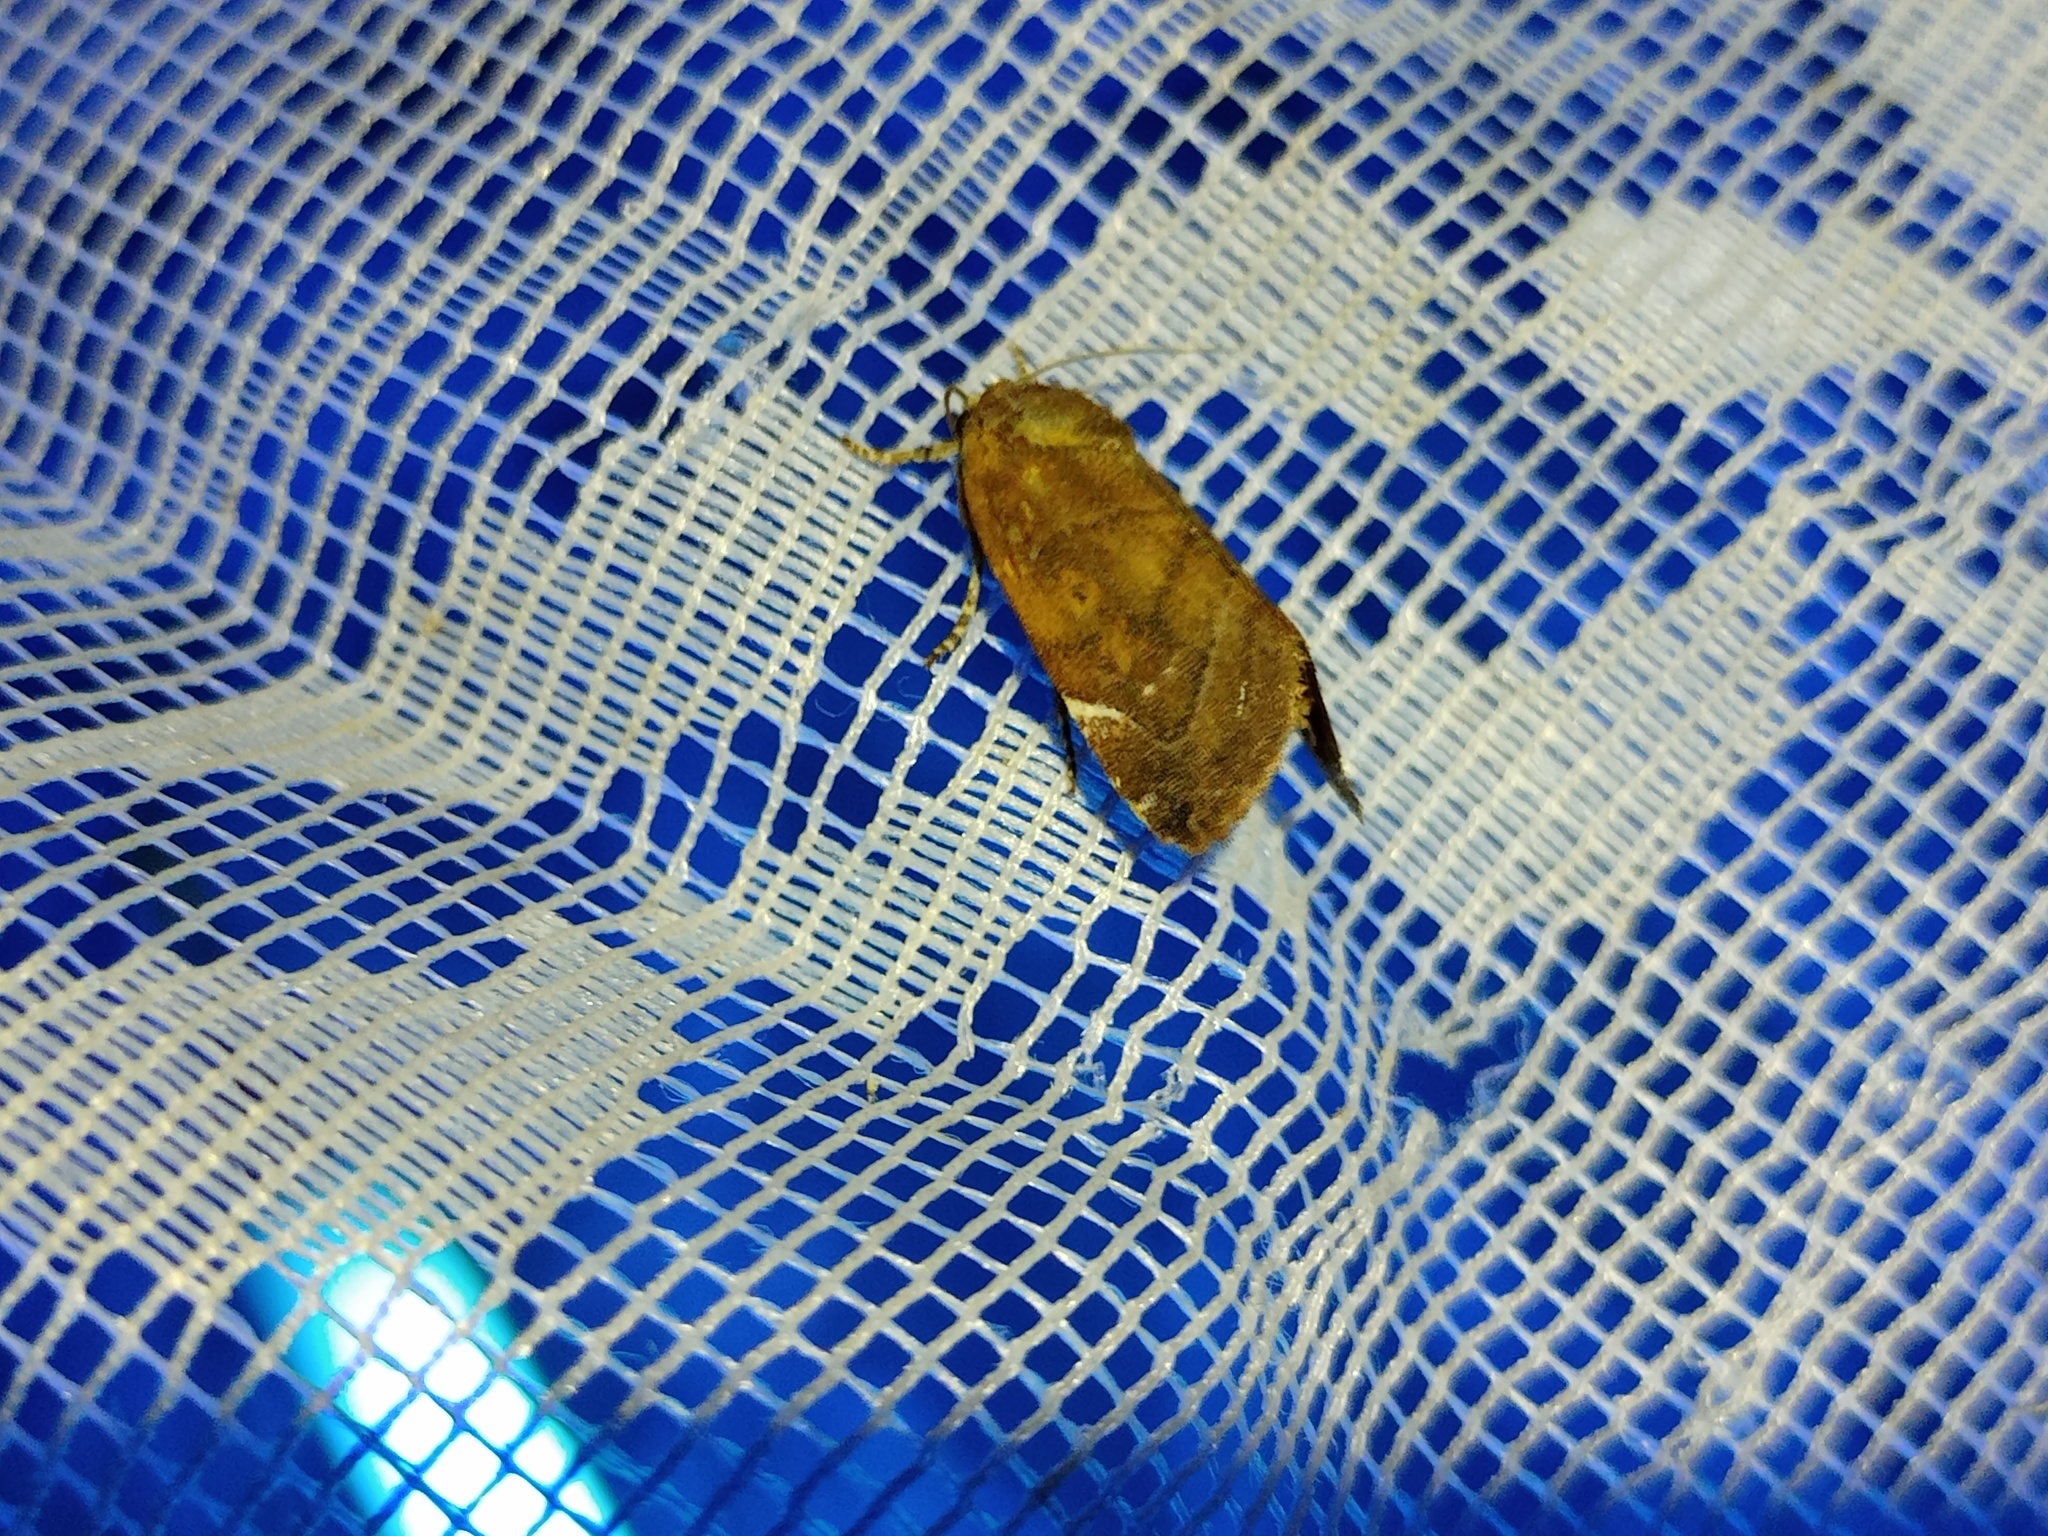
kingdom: Animalia
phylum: Arthropoda
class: Insecta
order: Lepidoptera
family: Noctuidae
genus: Cosmia
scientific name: Cosmia affinis
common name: Lesser-spotted pinion
